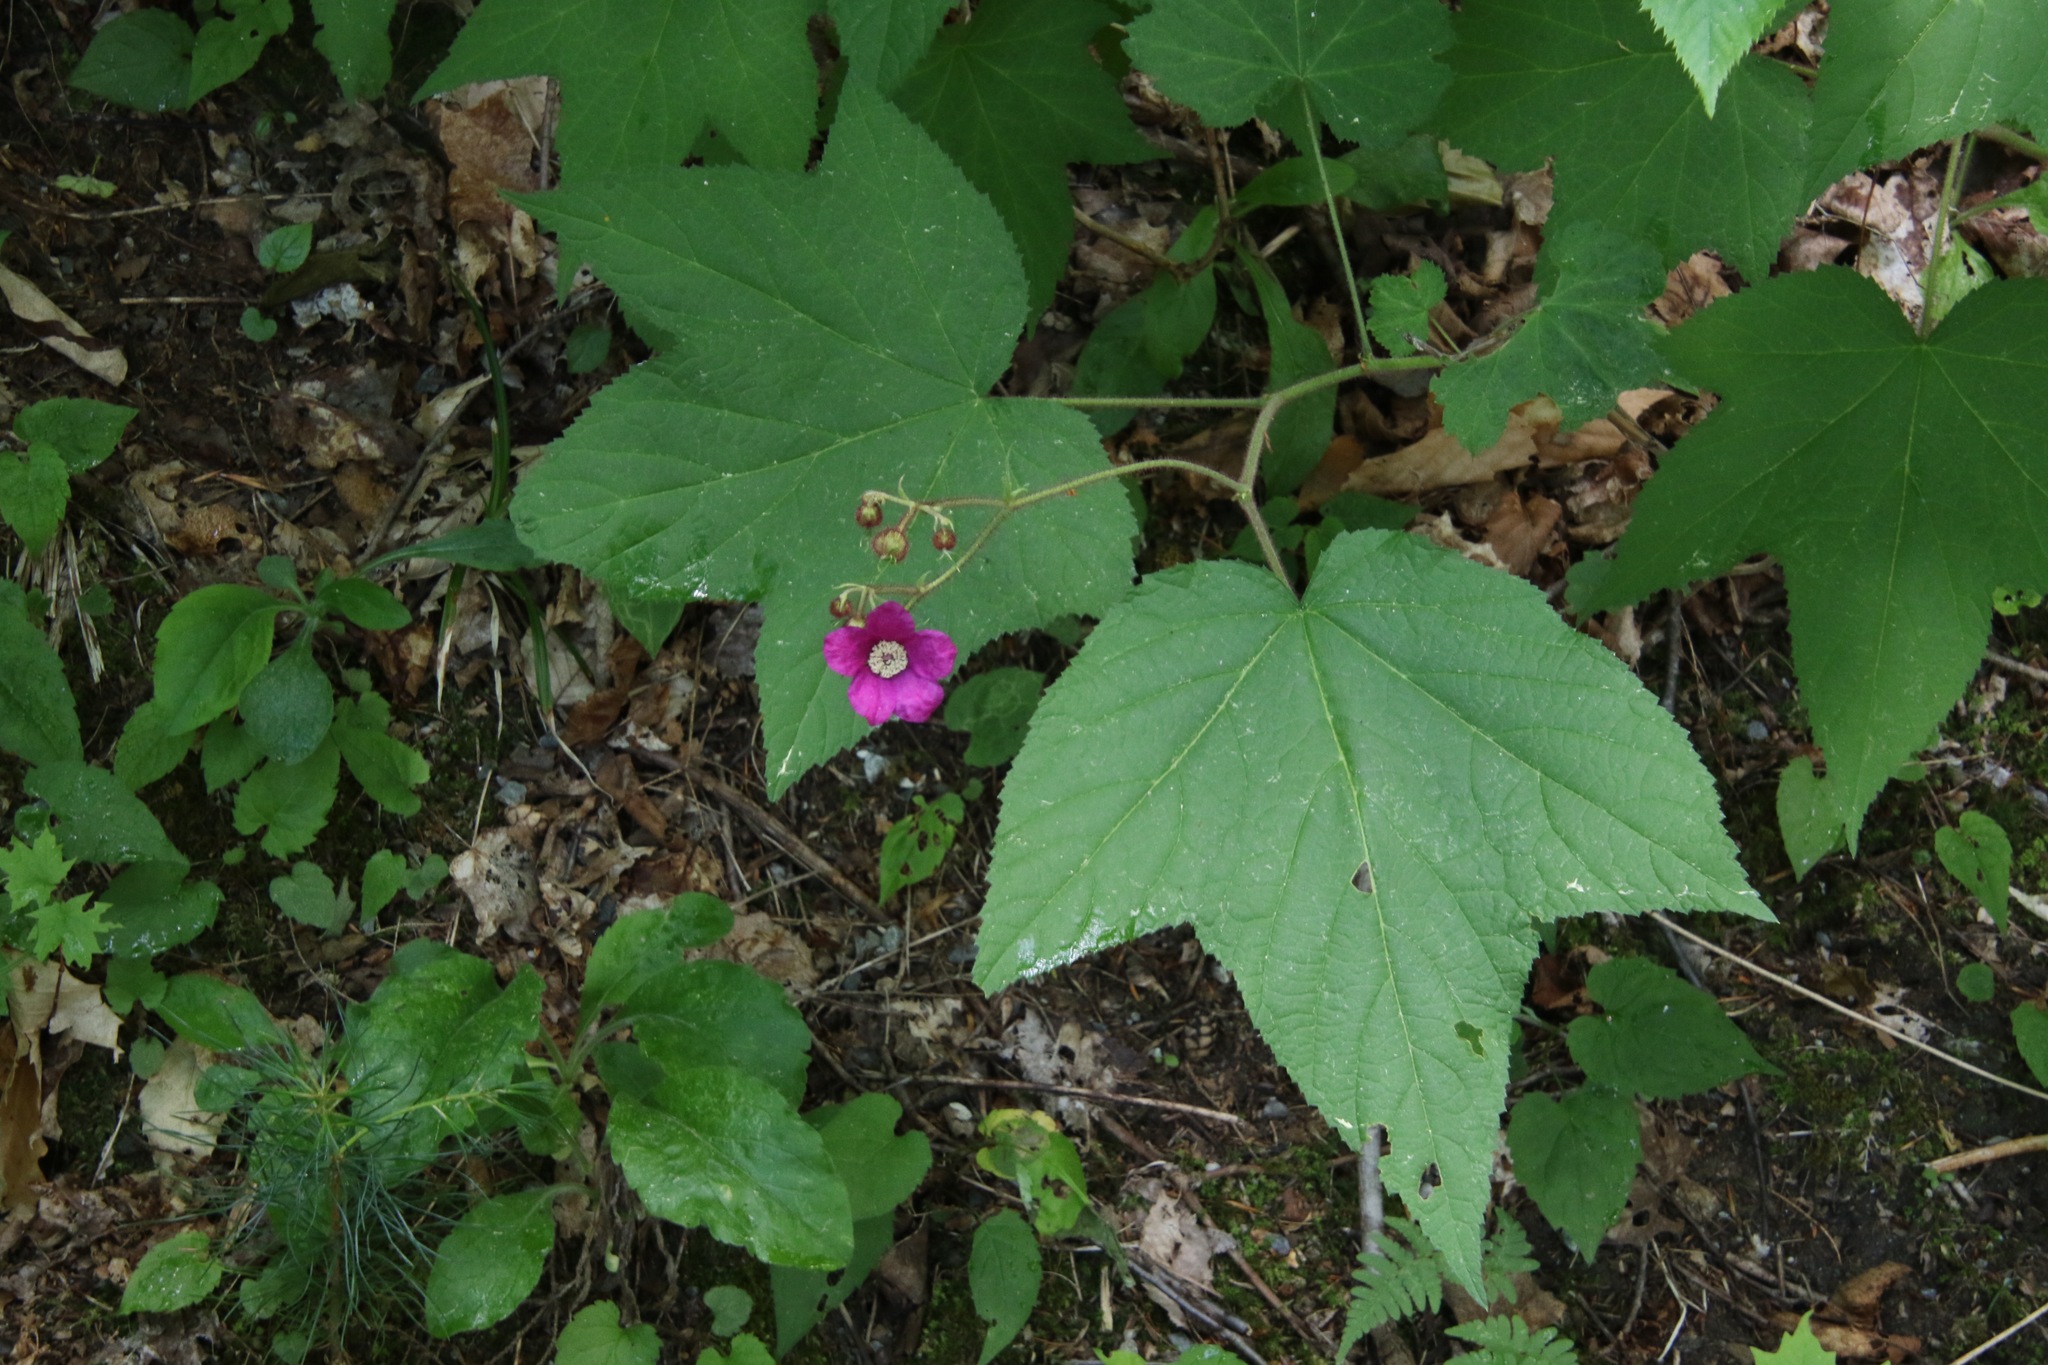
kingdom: Plantae
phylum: Tracheophyta
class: Magnoliopsida
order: Rosales
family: Rosaceae
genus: Rubus
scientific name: Rubus odoratus
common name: Purple-flowered raspberry
